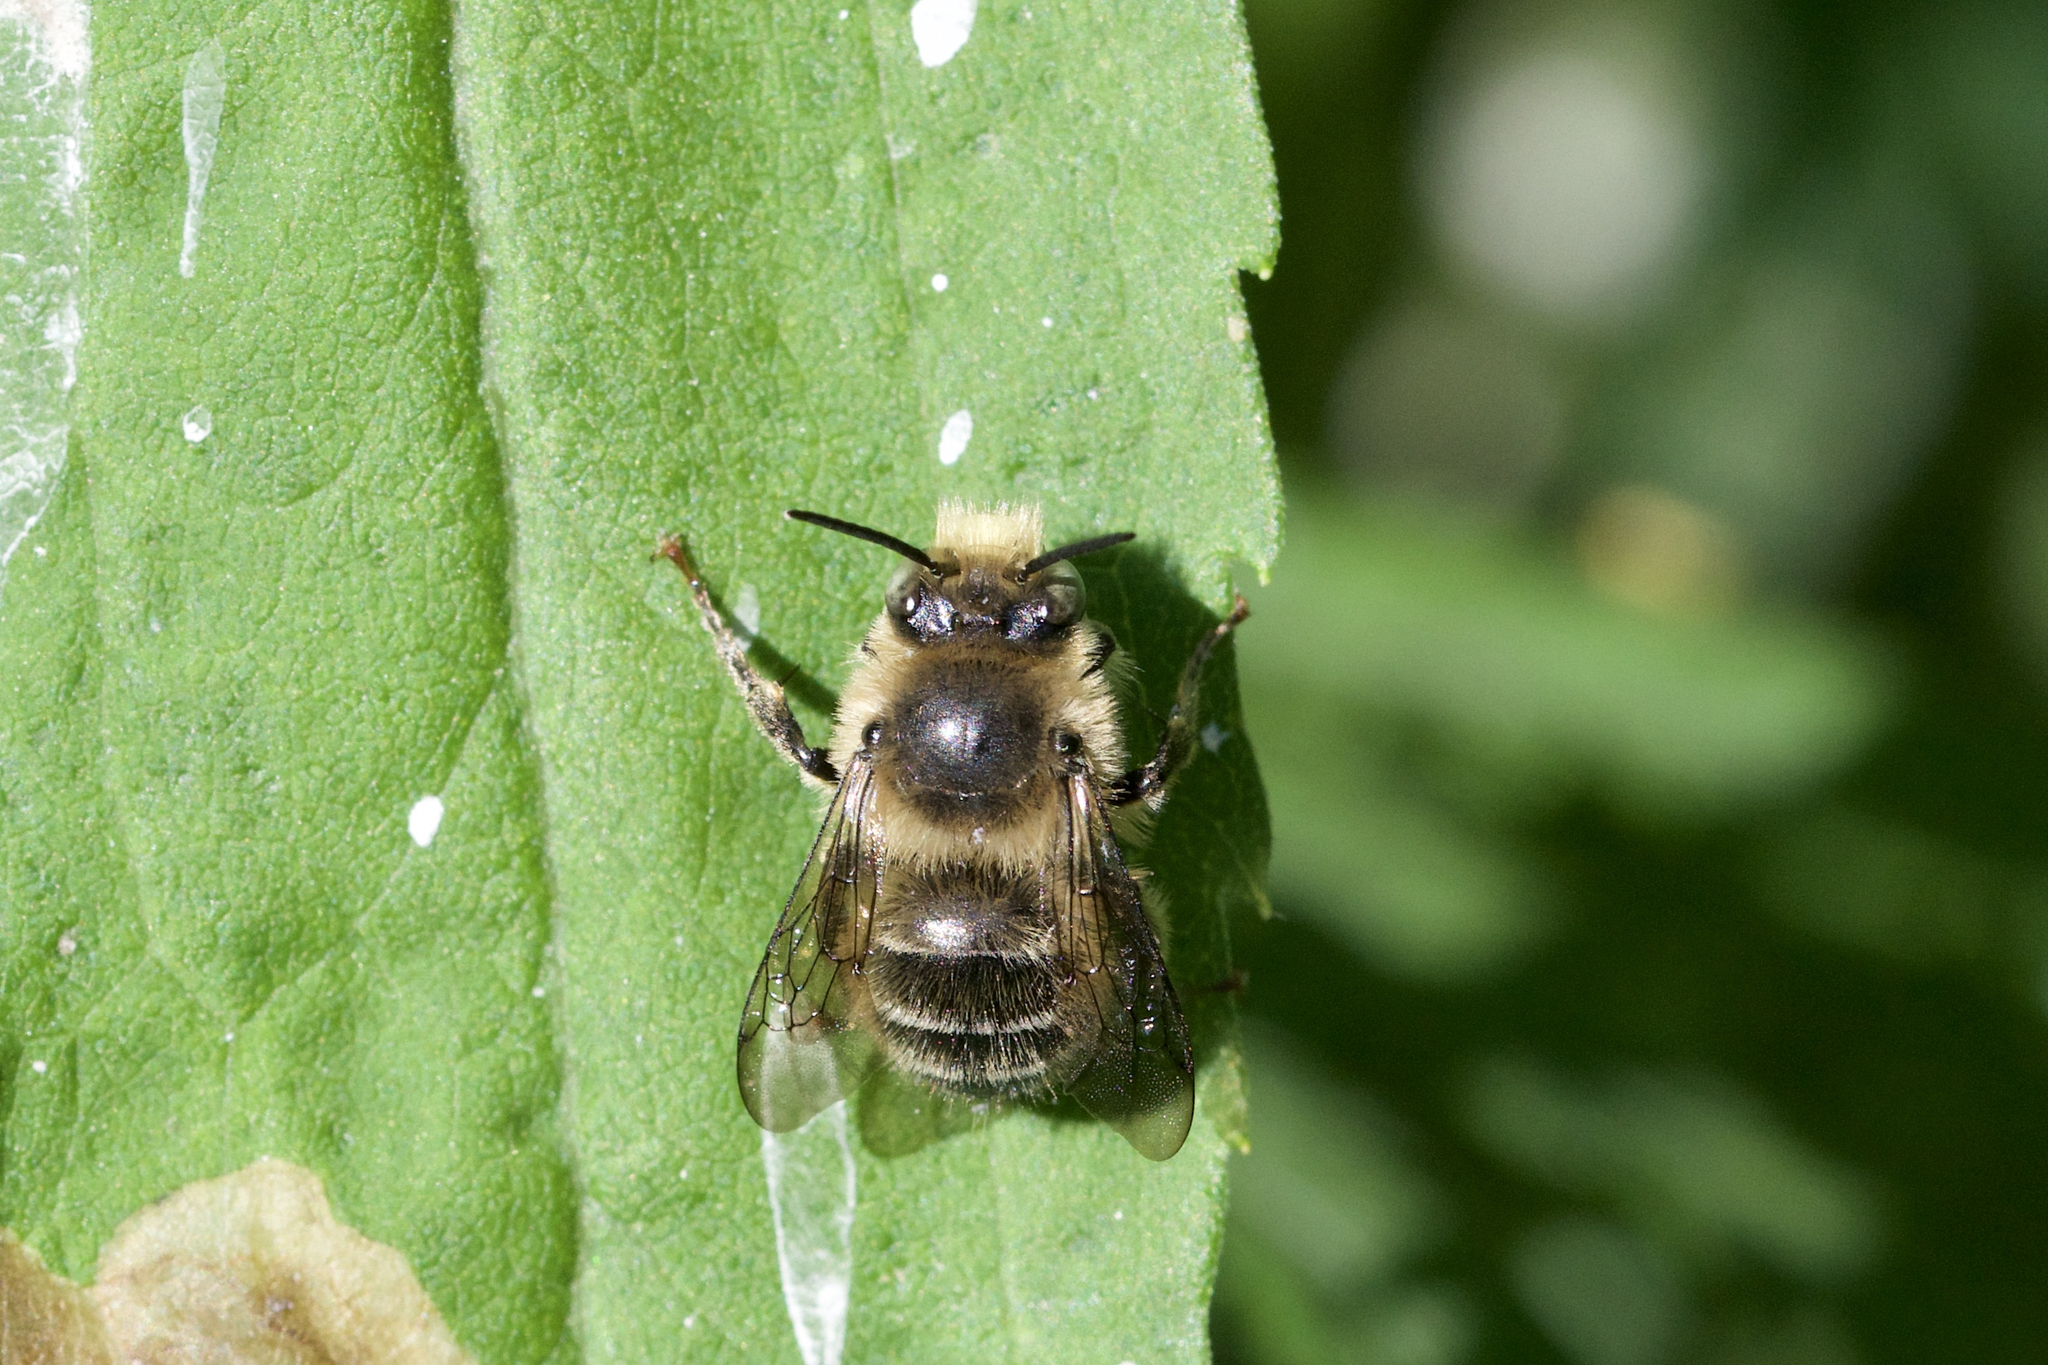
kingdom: Animalia
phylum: Arthropoda
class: Insecta
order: Hymenoptera
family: Apidae
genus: Anthophora
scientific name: Anthophora terminalis
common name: Orange-tipped wood-digger bee
